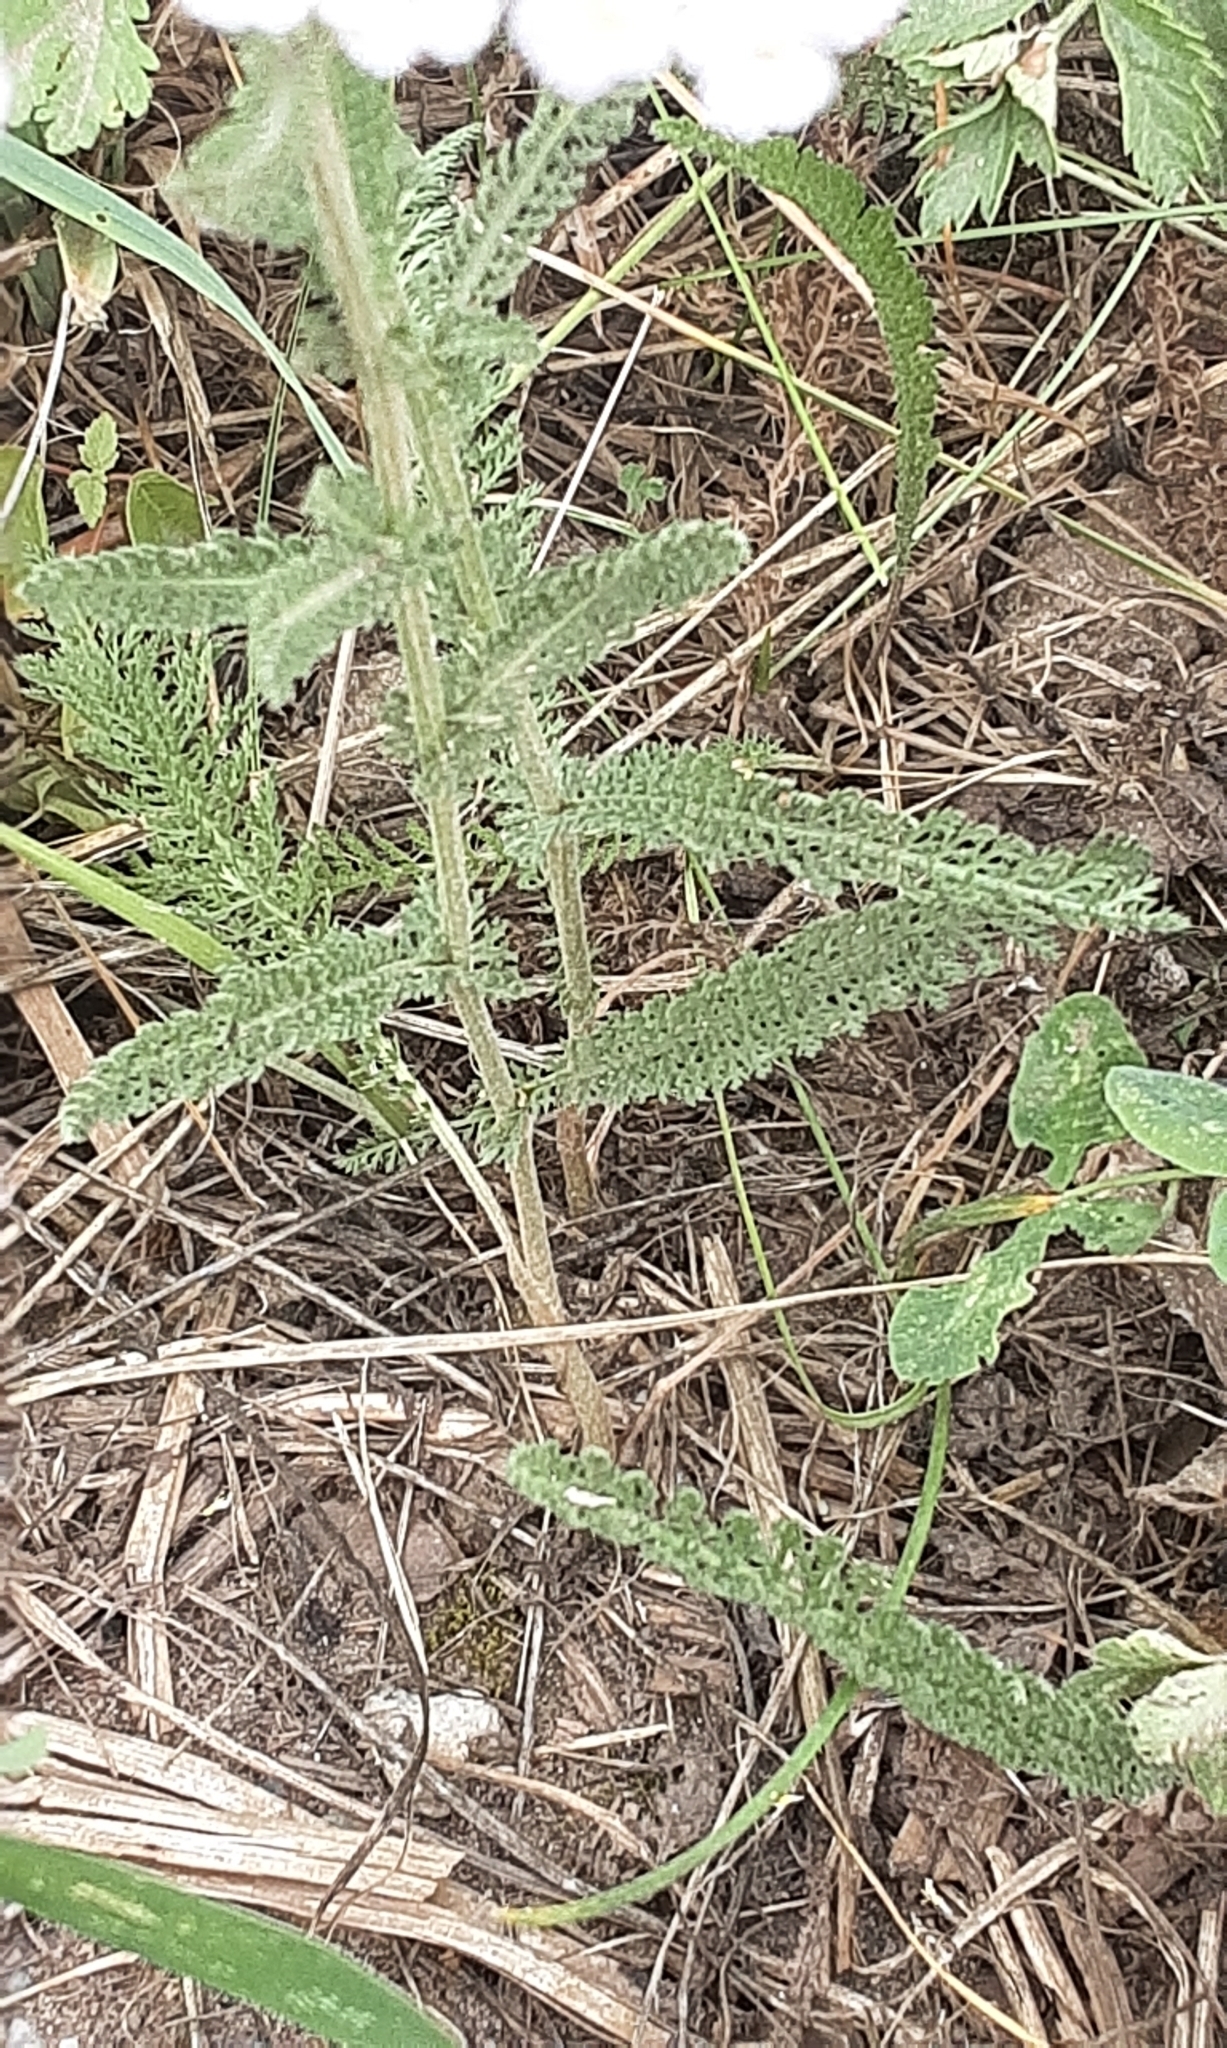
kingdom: Plantae
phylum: Tracheophyta
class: Magnoliopsida
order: Asterales
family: Asteraceae
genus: Achillea
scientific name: Achillea millefolium
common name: Yarrow
